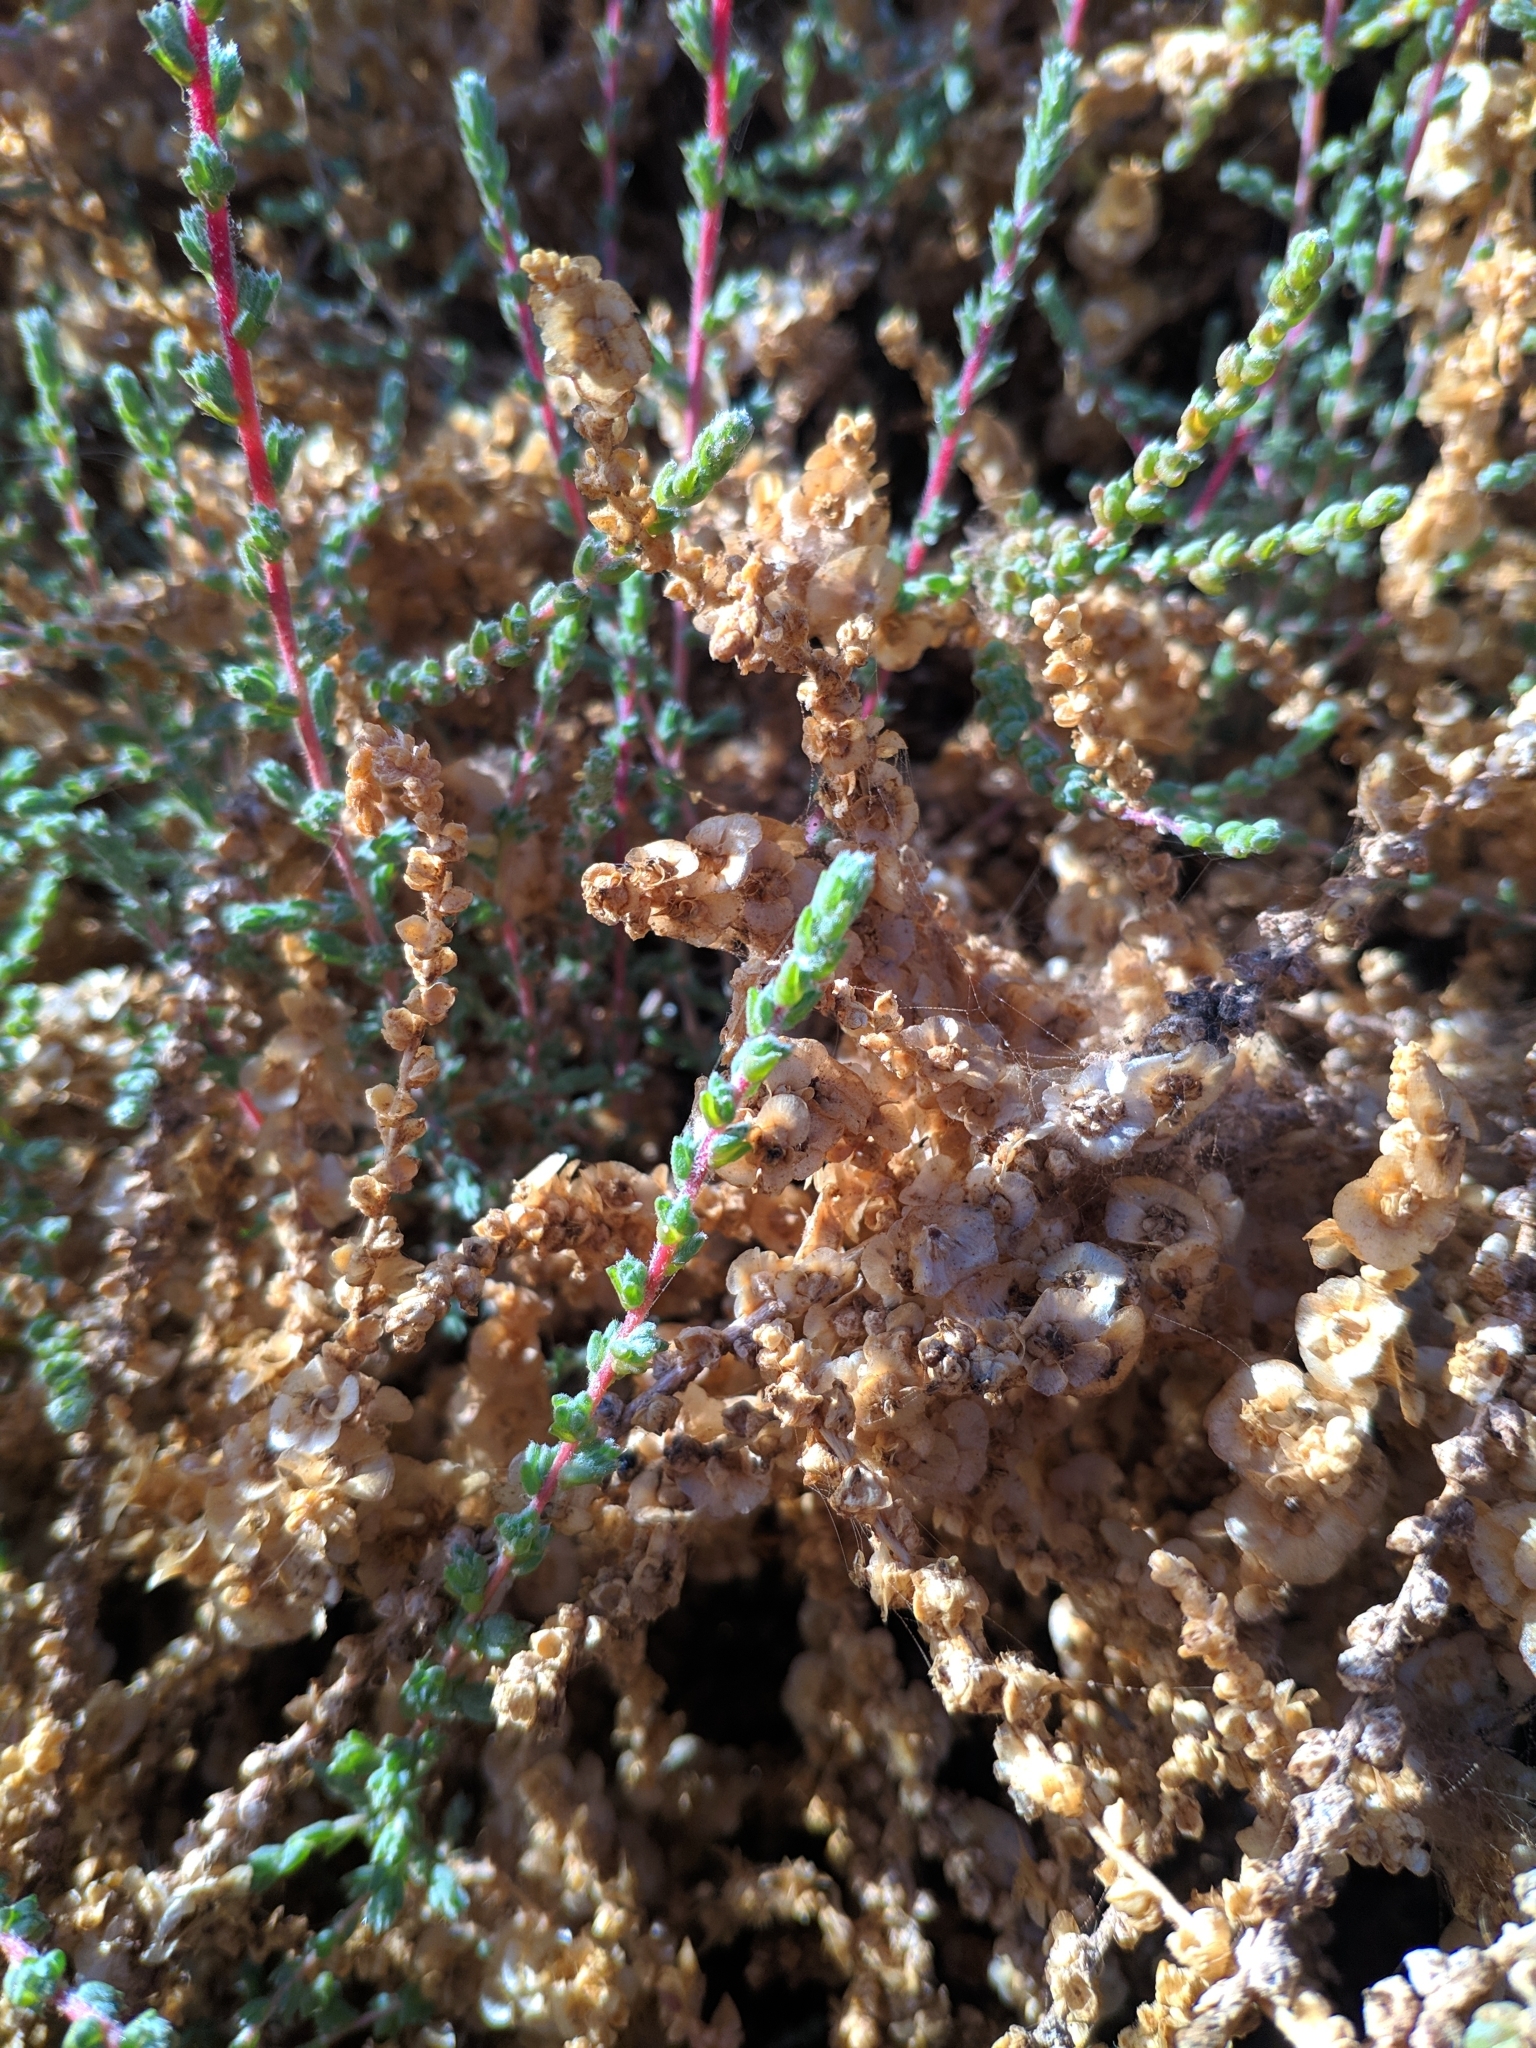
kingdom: Plantae
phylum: Tracheophyta
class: Magnoliopsida
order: Caryophyllales
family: Amaranthaceae
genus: Nitrosalsola
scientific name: Nitrosalsola vermiculata
